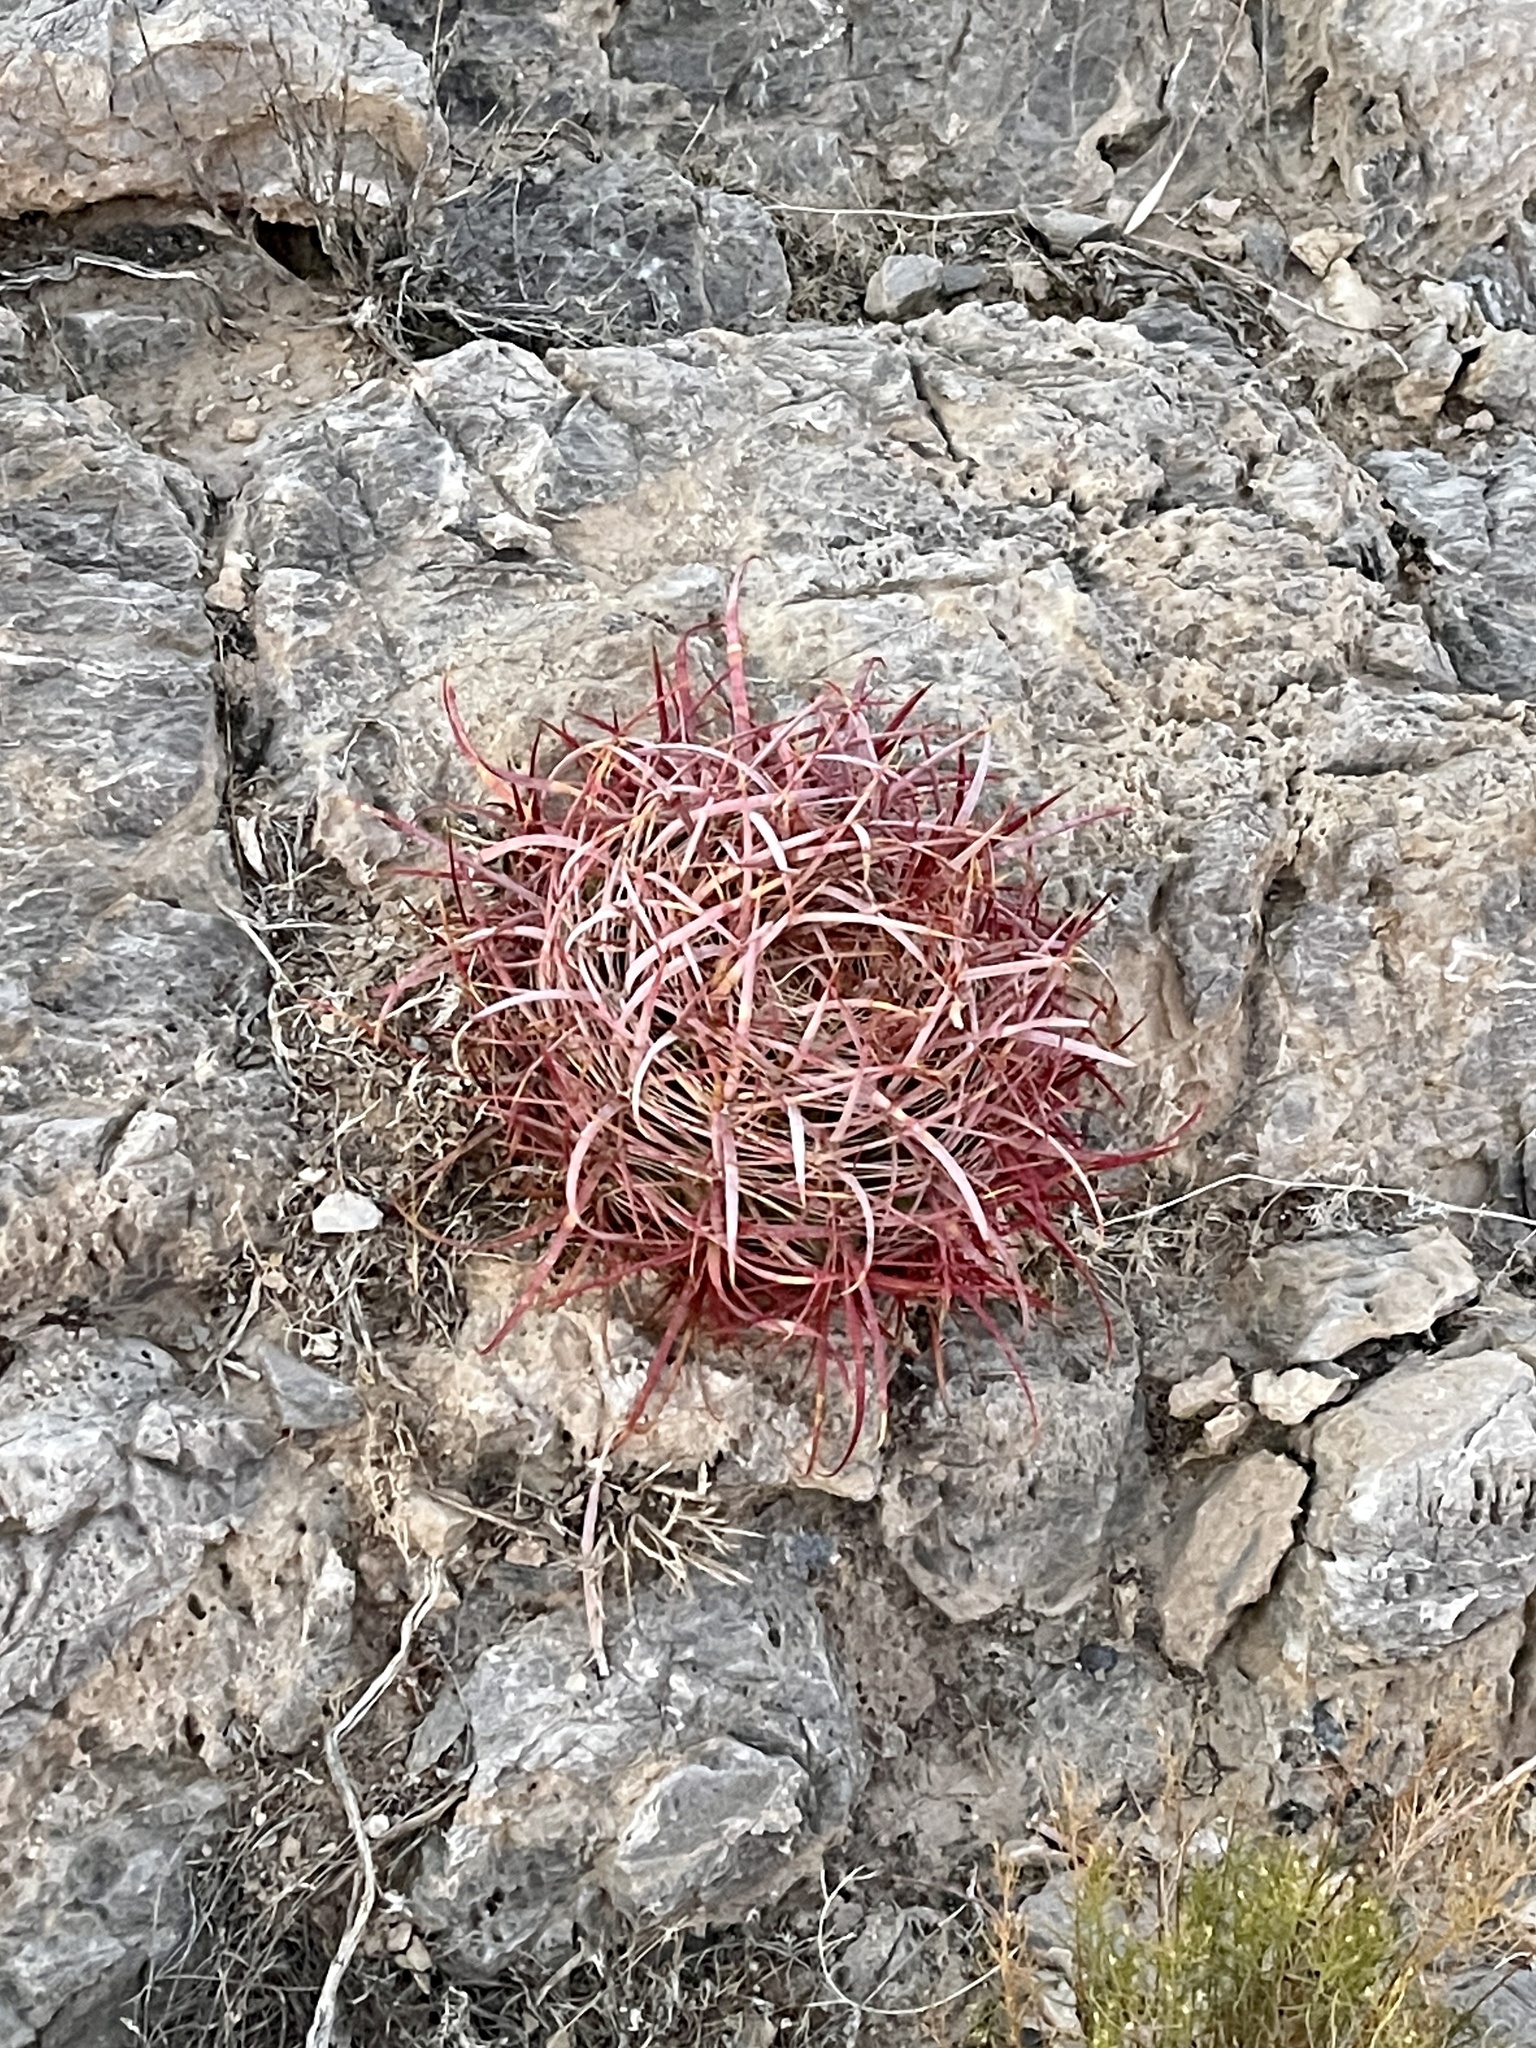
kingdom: Plantae
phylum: Tracheophyta
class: Magnoliopsida
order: Caryophyllales
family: Cactaceae
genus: Ferocactus
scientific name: Ferocactus cylindraceus
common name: California barrel cactus
